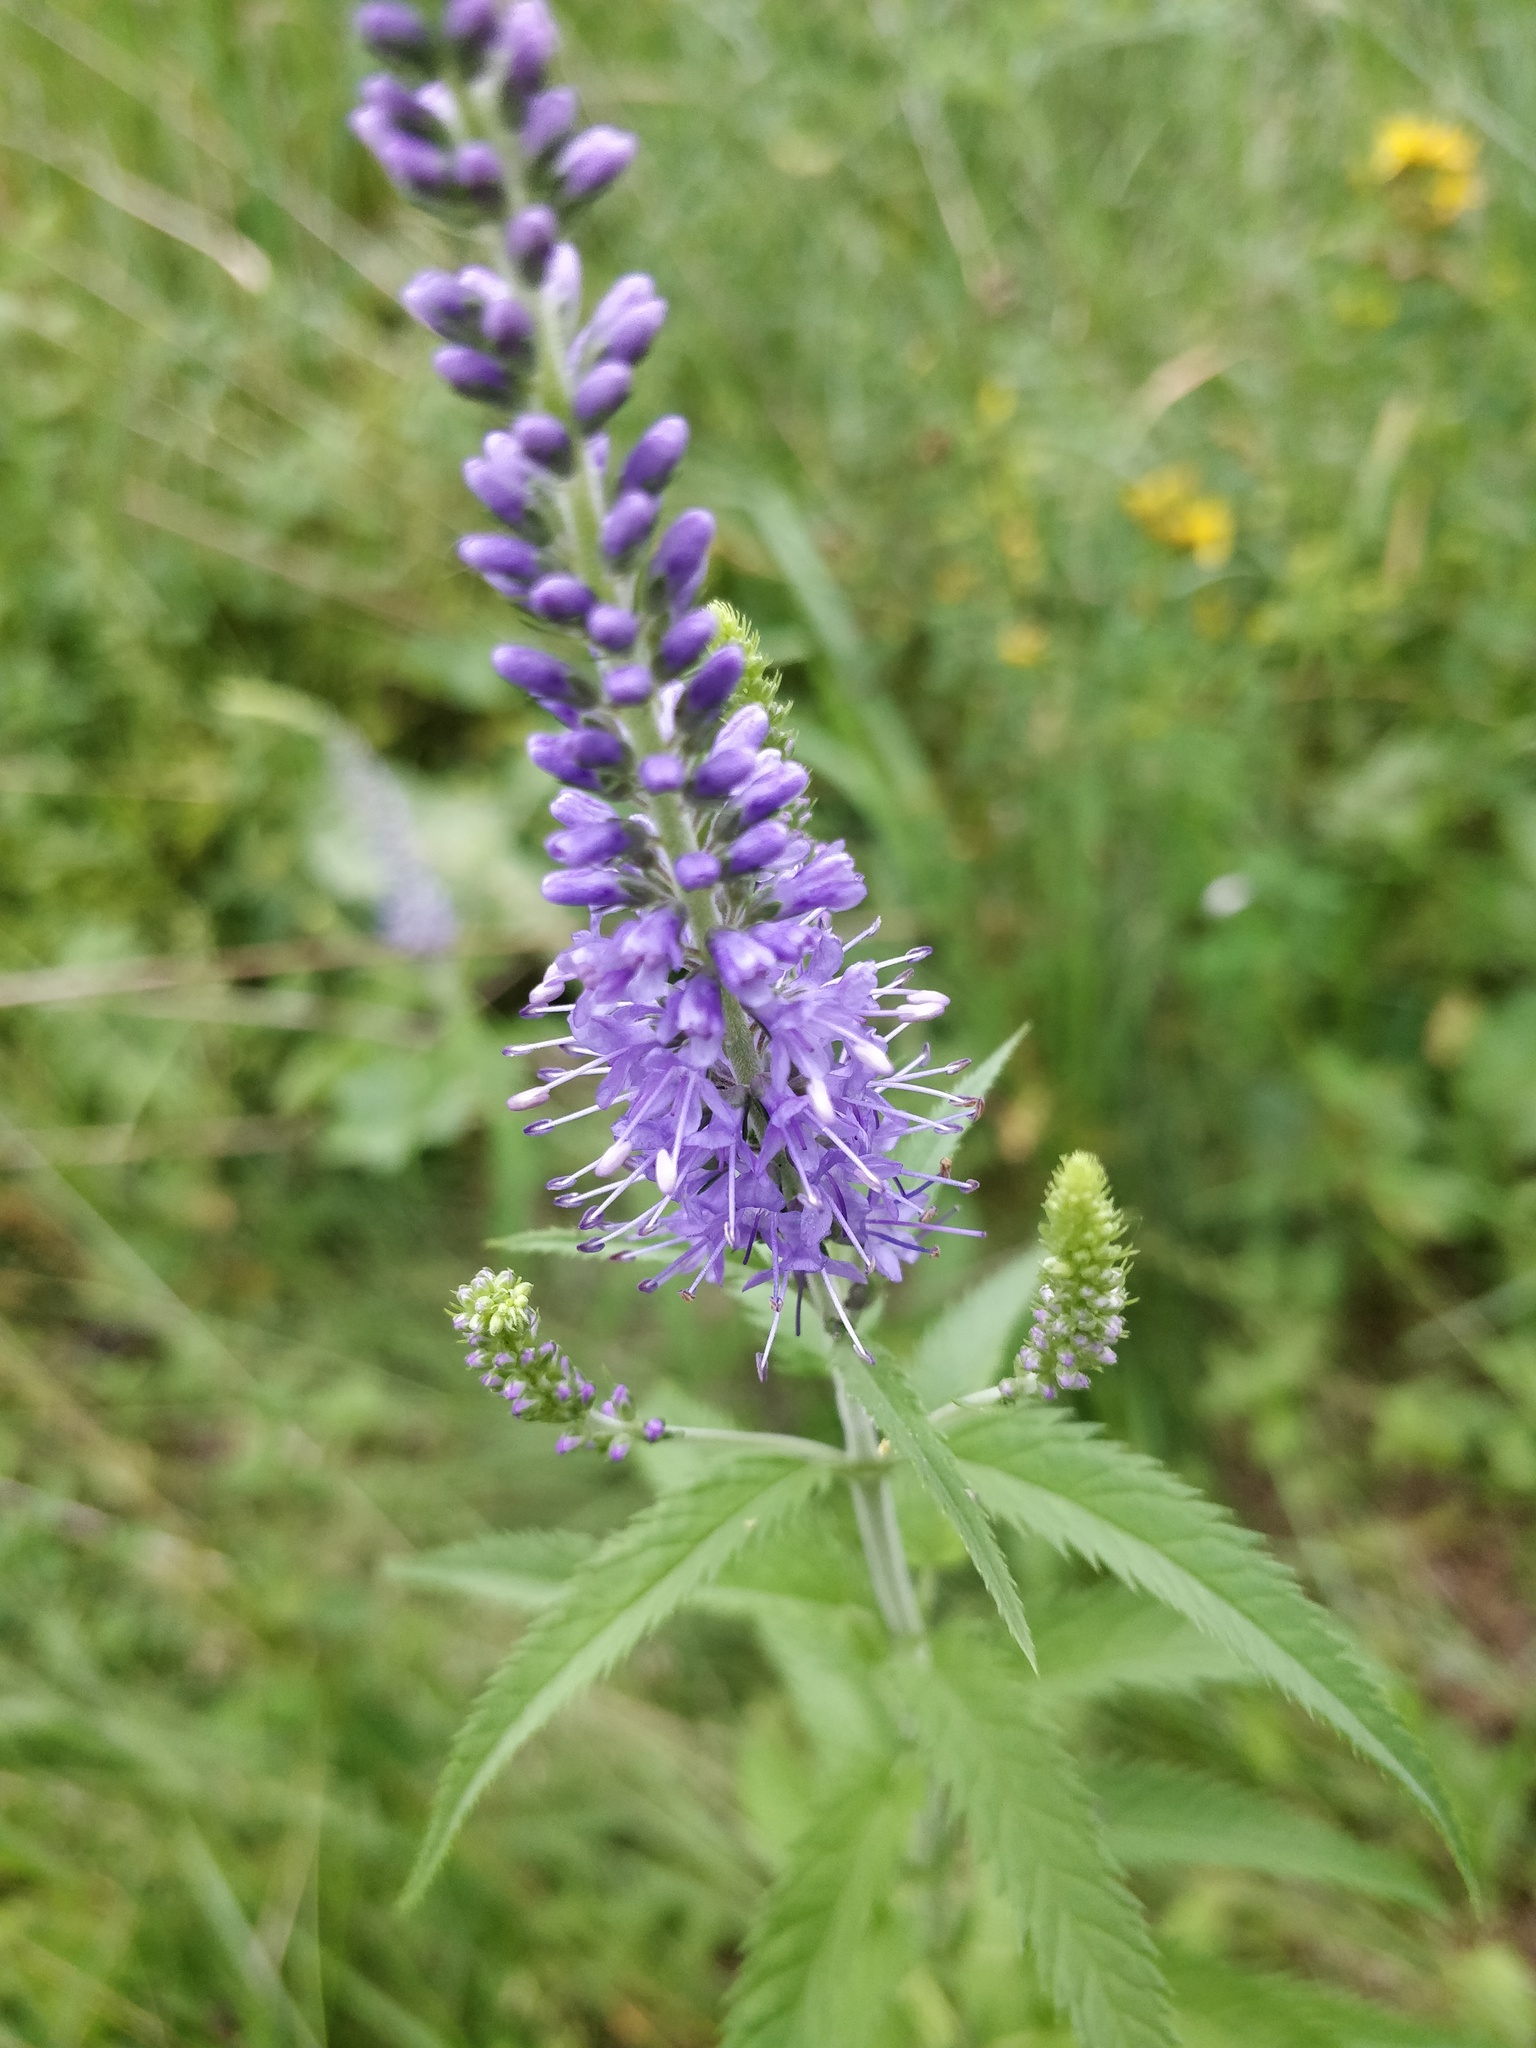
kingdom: Plantae
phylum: Tracheophyta
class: Magnoliopsida
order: Lamiales
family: Plantaginaceae
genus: Veronica
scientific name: Veronica longifolia
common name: Garden speedwell
